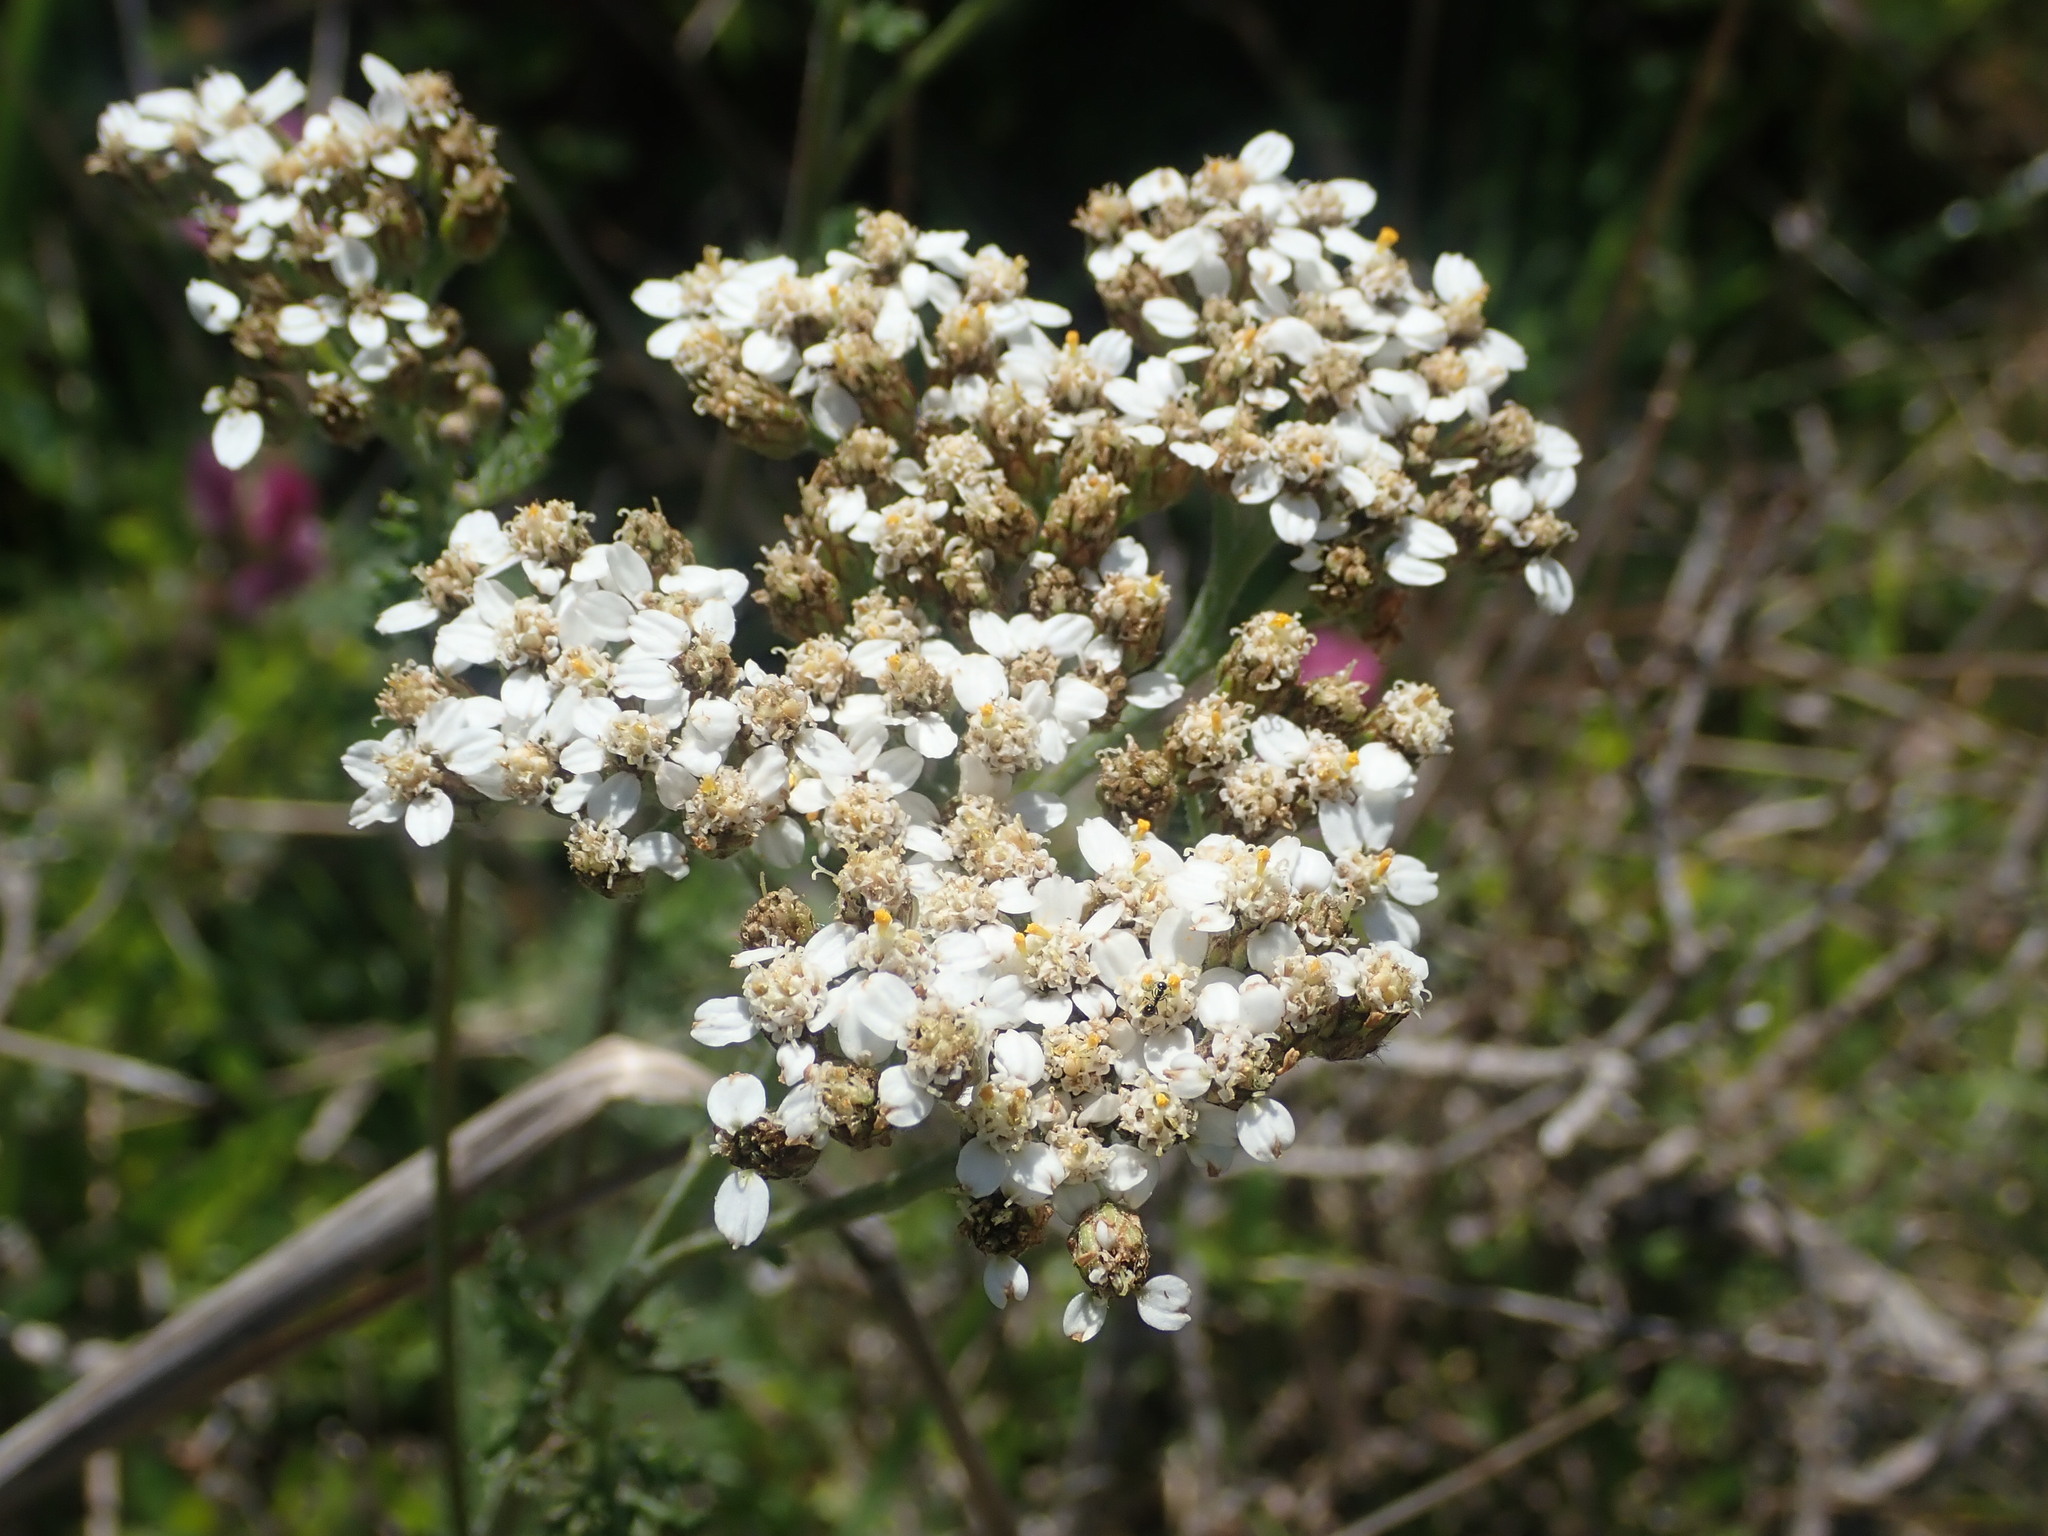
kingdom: Plantae
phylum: Tracheophyta
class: Magnoliopsida
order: Asterales
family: Asteraceae
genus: Achillea
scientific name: Achillea millefolium
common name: Yarrow
